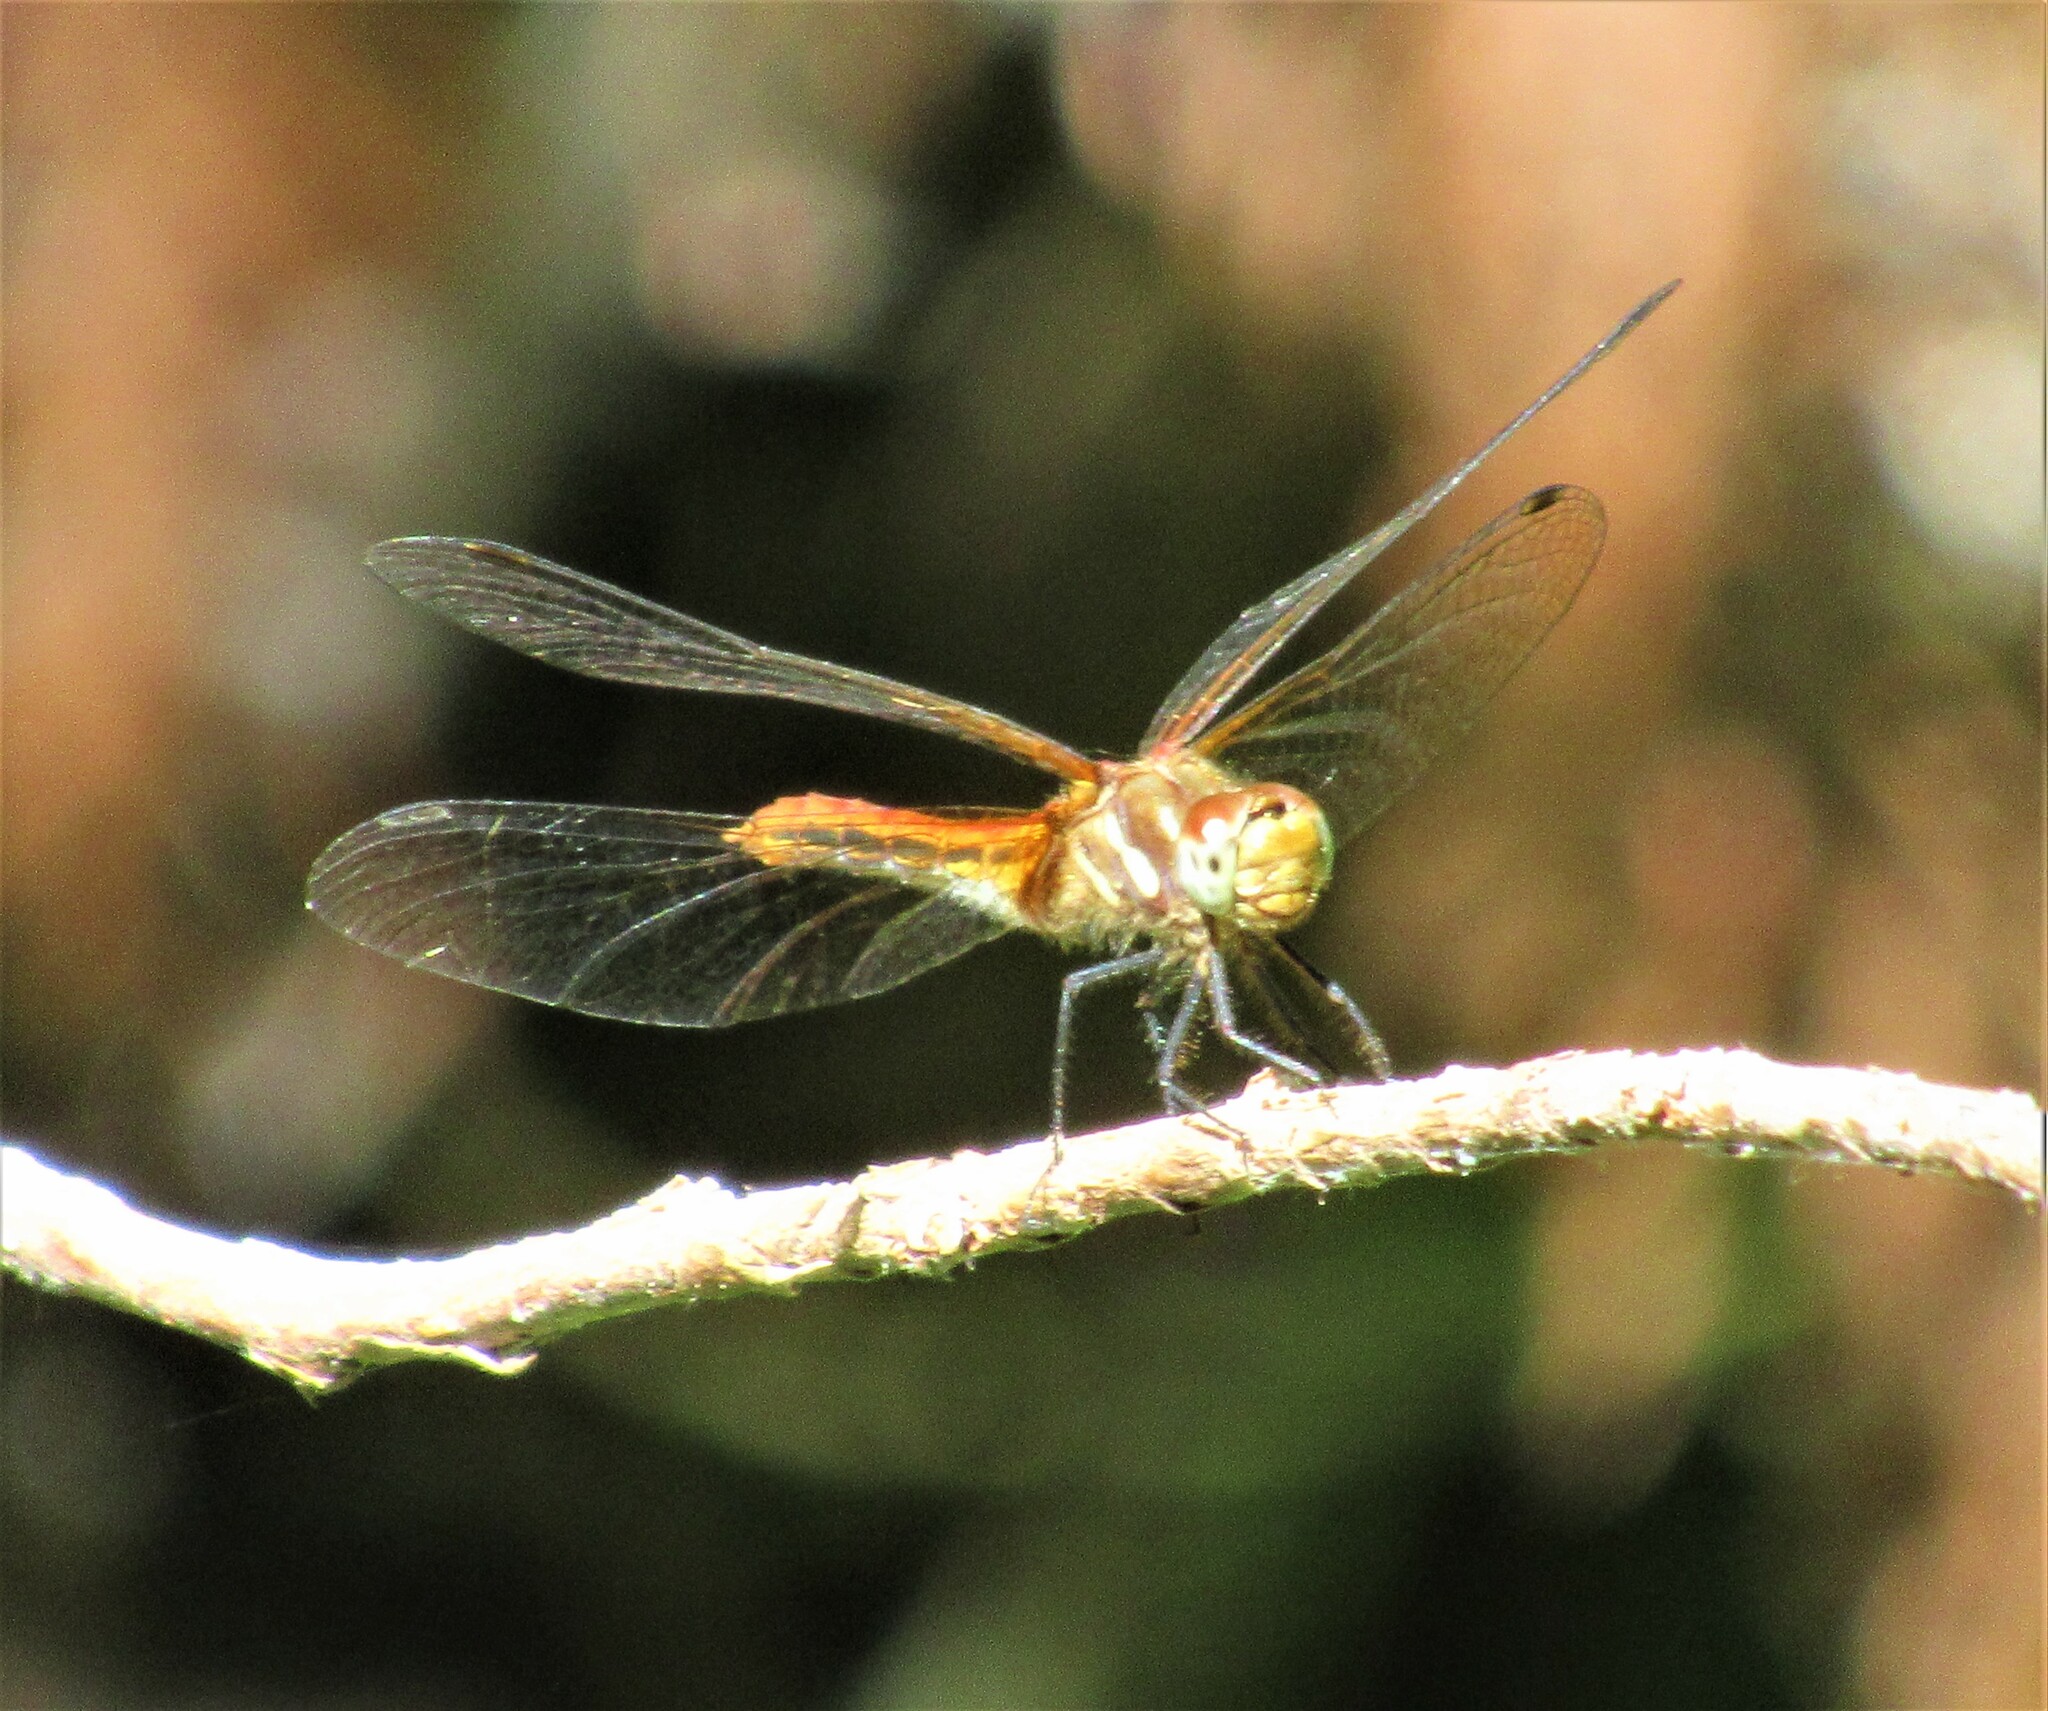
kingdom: Animalia
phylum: Arthropoda
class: Insecta
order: Odonata
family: Libellulidae
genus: Sympetrum
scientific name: Sympetrum pallipes
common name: Striped meadowhawk
